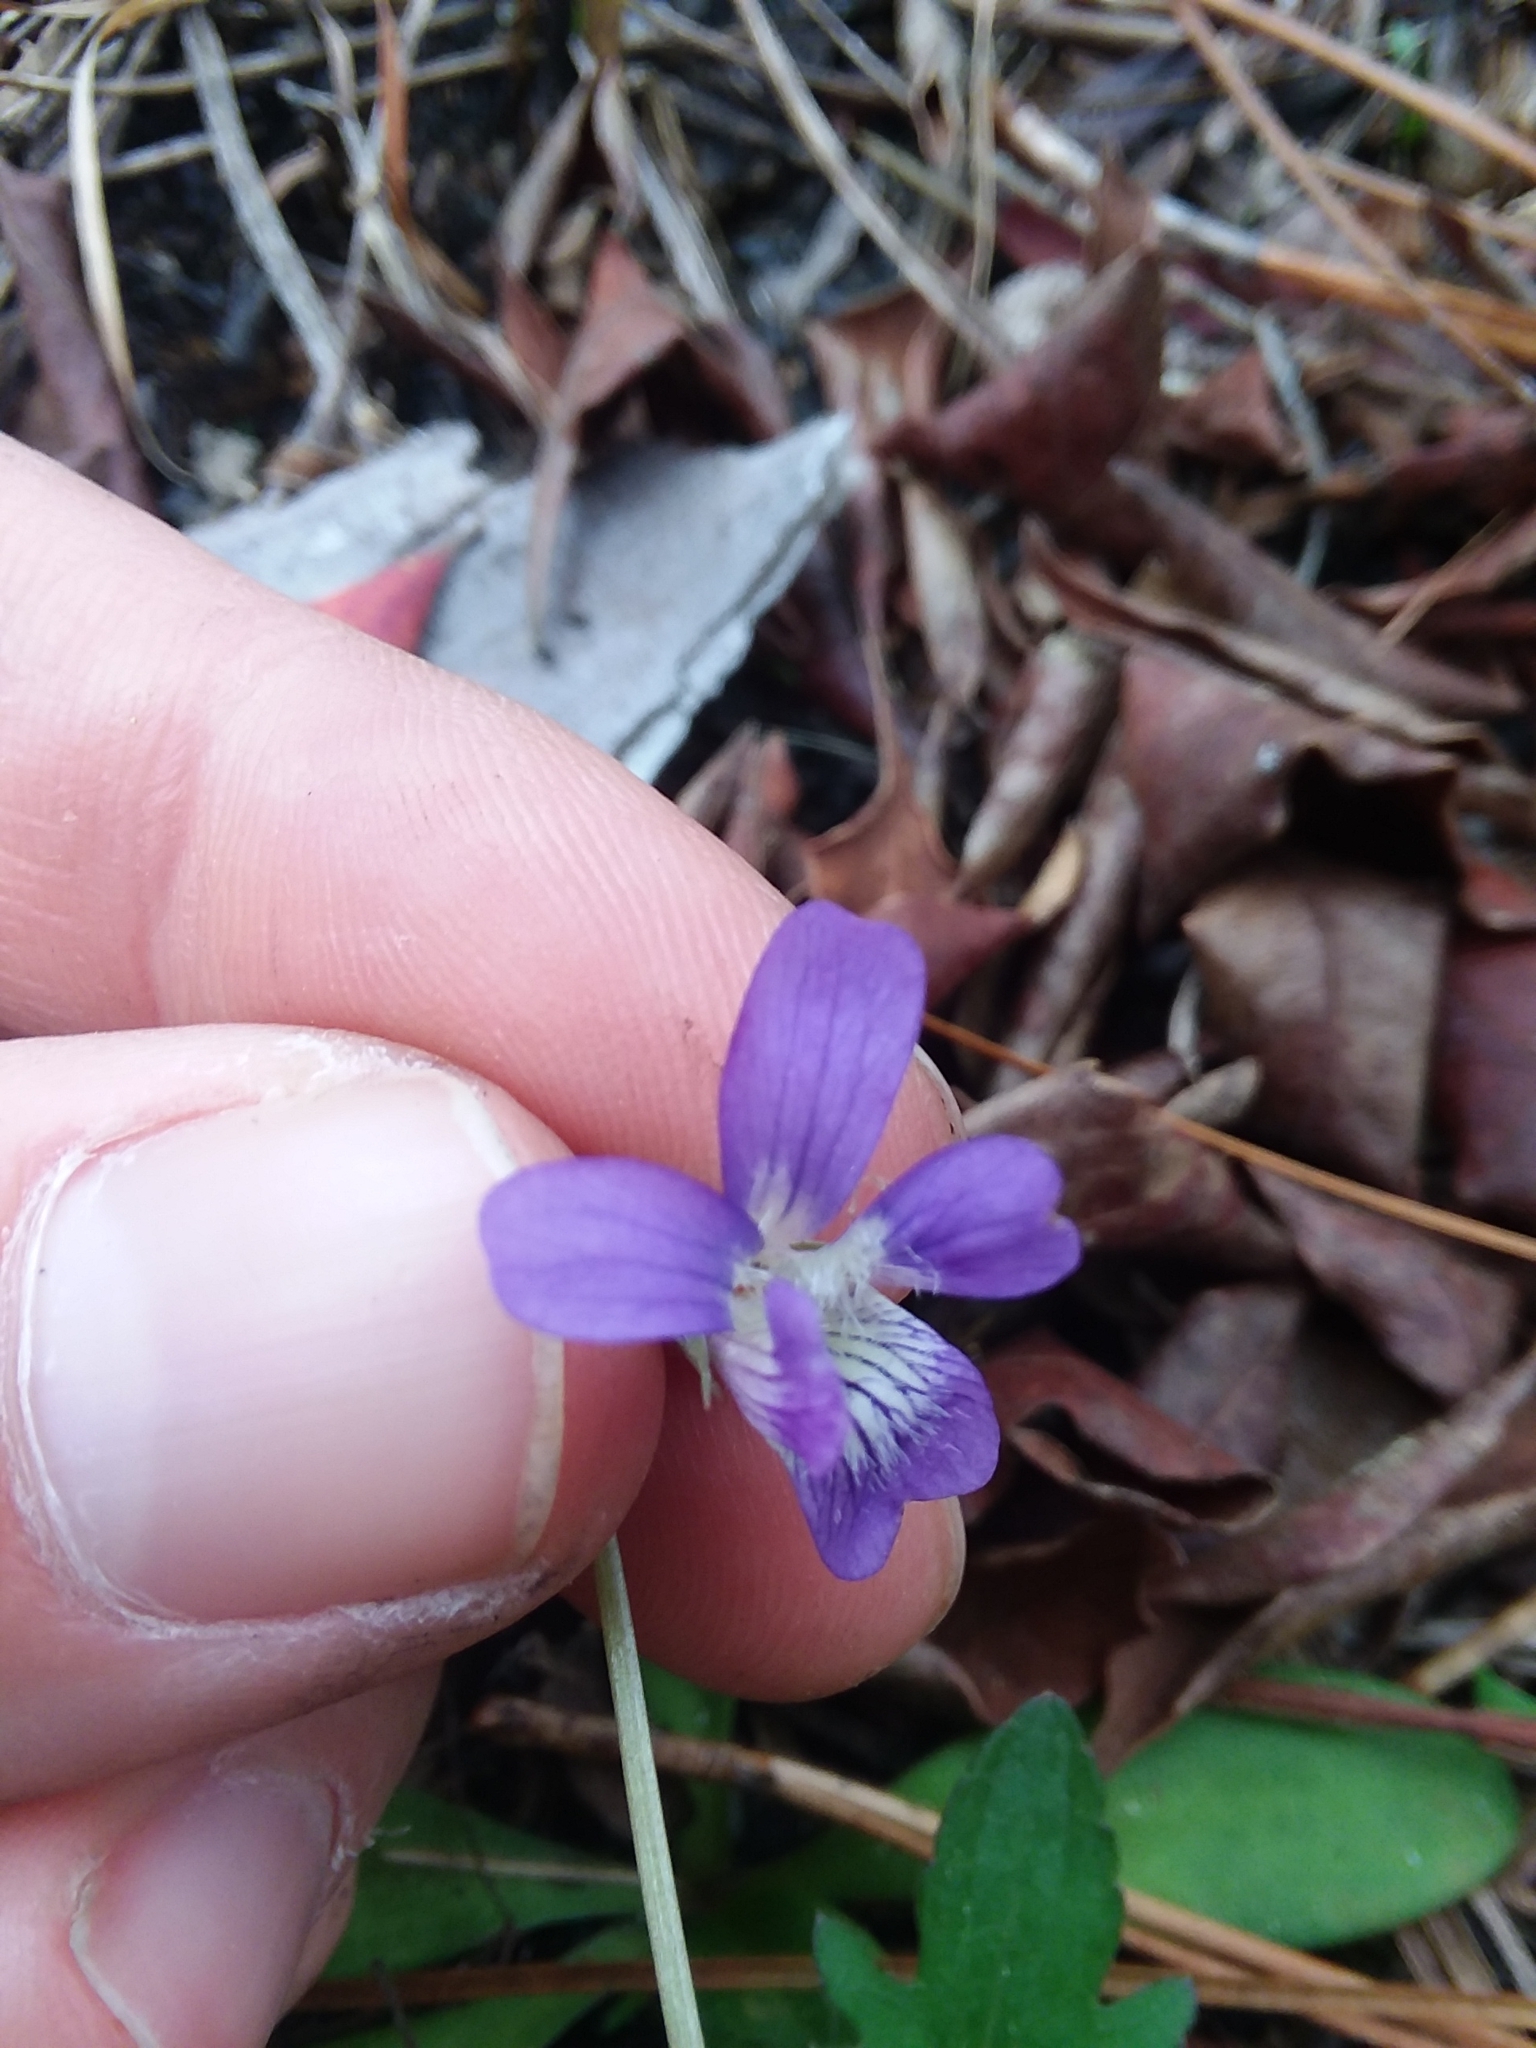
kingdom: Plantae
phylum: Tracheophyta
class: Magnoliopsida
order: Malpighiales
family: Violaceae
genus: Viola
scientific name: Viola septemloba
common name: Southern coast violet
